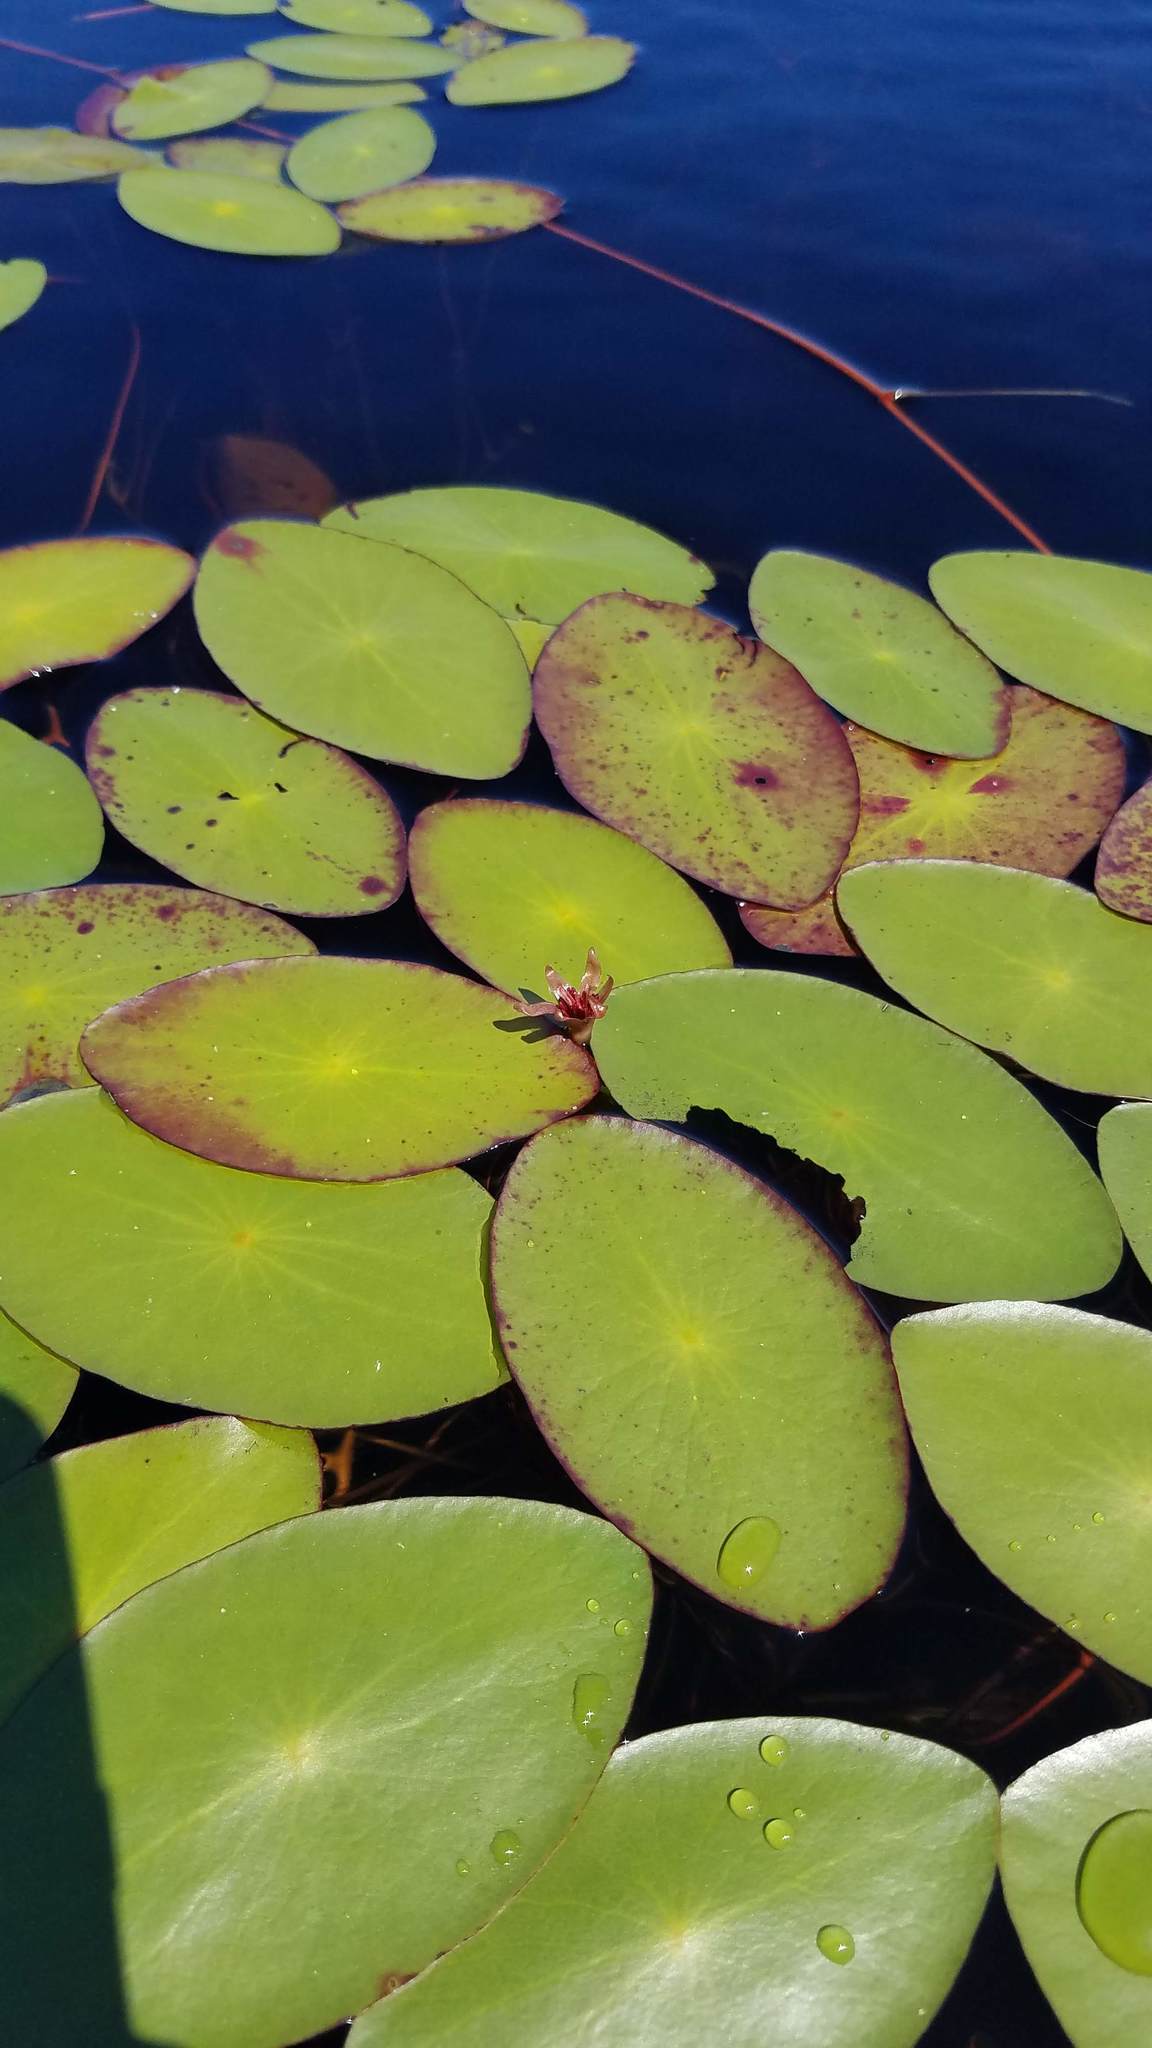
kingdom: Plantae
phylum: Tracheophyta
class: Magnoliopsida
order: Nymphaeales
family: Cabombaceae
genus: Brasenia
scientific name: Brasenia schreberi
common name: Water-shield
